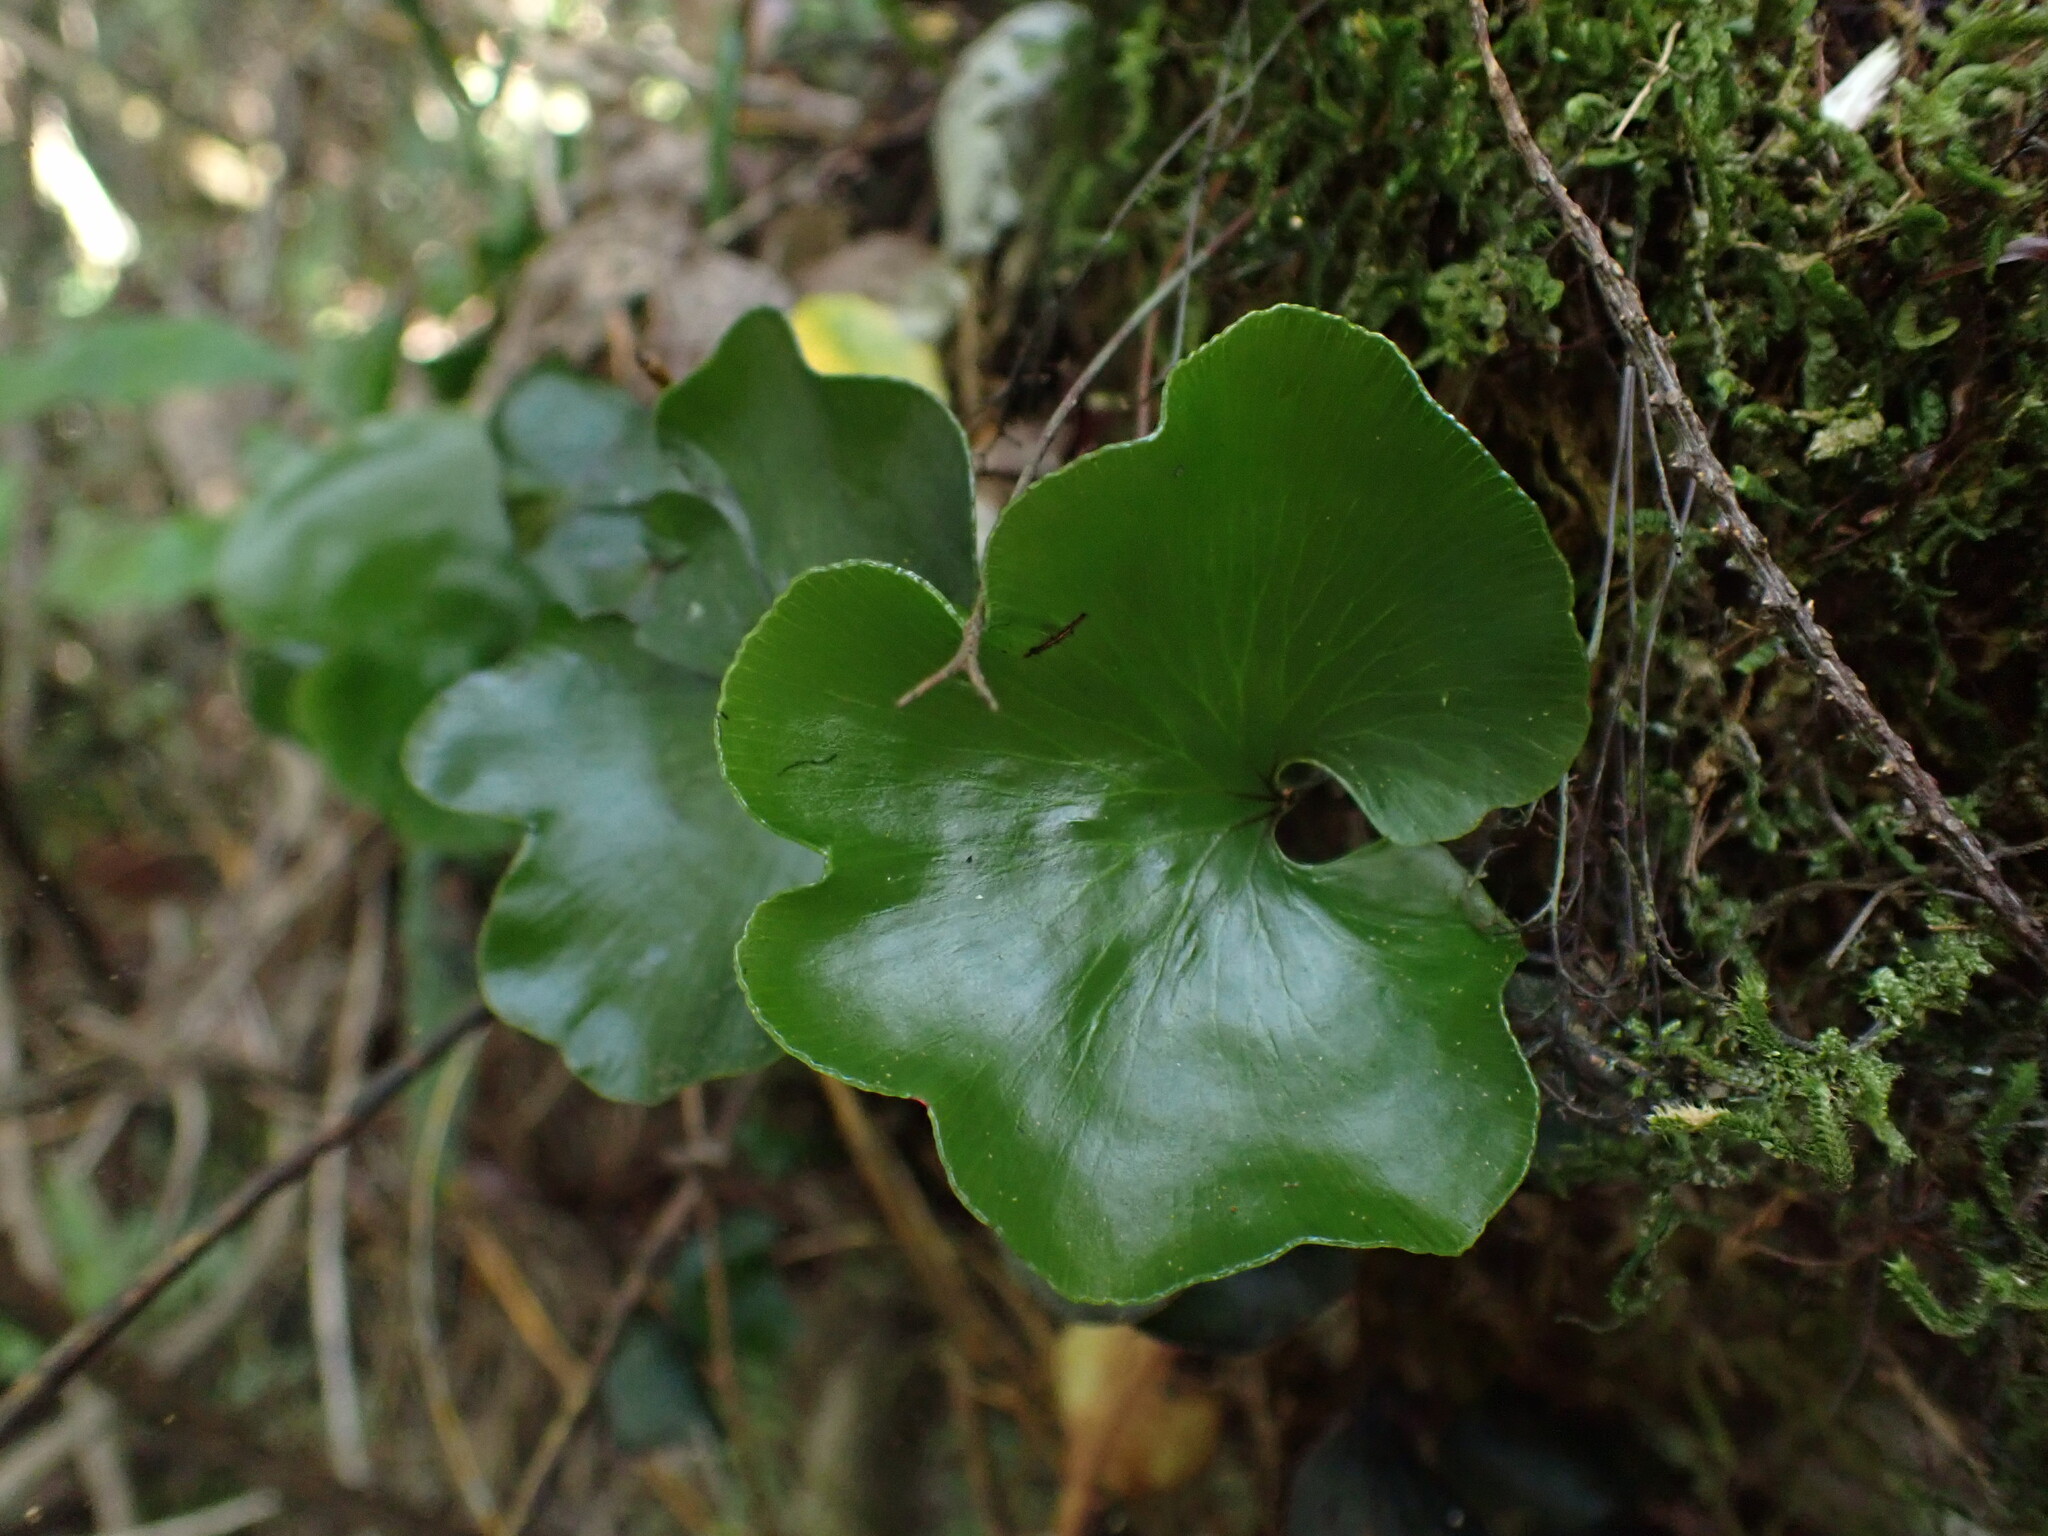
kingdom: Plantae
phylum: Tracheophyta
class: Polypodiopsida
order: Hymenophyllales
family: Hymenophyllaceae
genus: Hymenophyllum
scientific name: Hymenophyllum nephrophyllum
